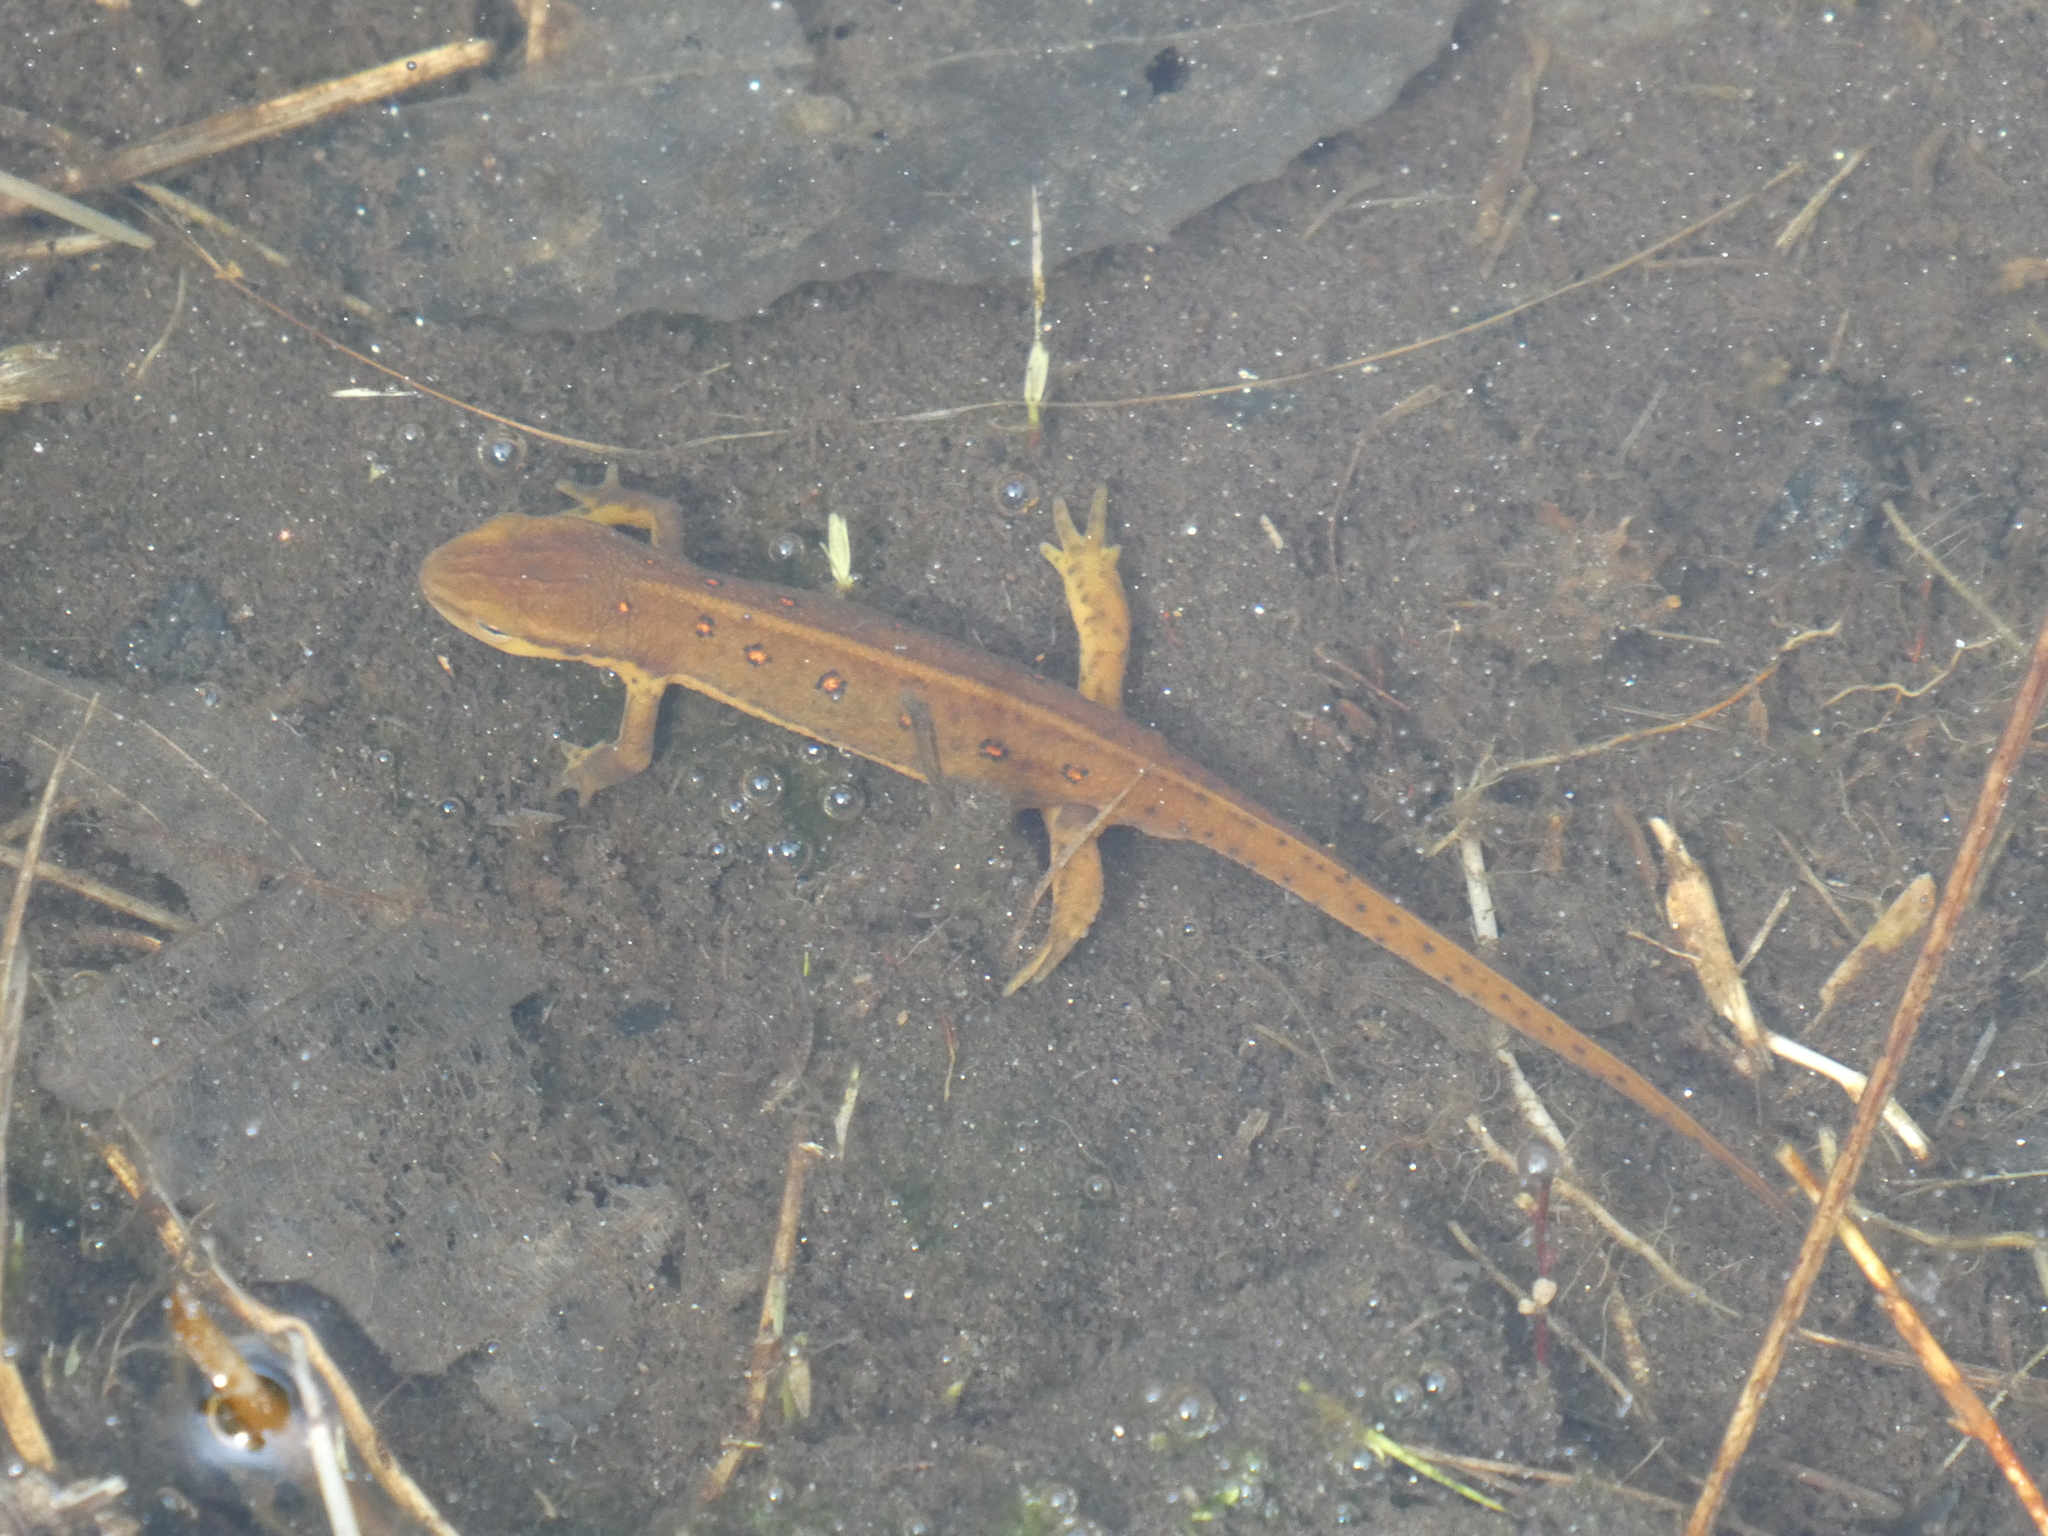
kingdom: Animalia
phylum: Chordata
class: Amphibia
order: Caudata
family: Salamandridae
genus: Notophthalmus
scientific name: Notophthalmus viridescens
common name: Eastern newt
